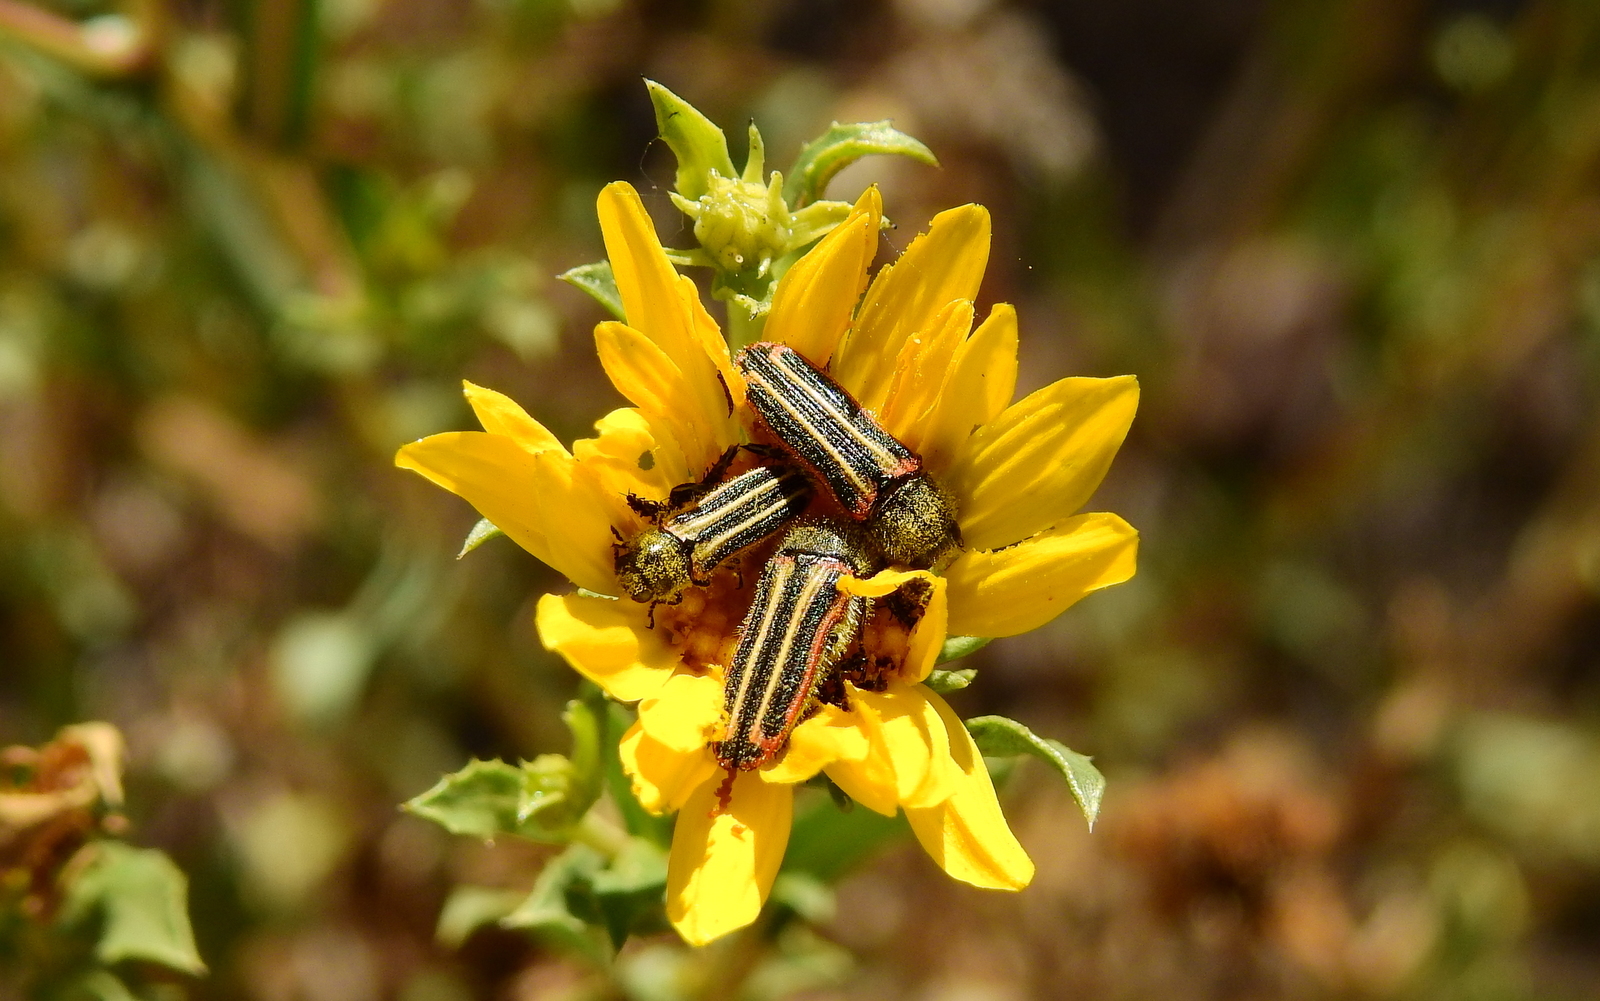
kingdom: Animalia
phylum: Arthropoda
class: Insecta
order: Coleoptera
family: Buprestidae
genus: Lasionota
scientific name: Lasionota alternans
